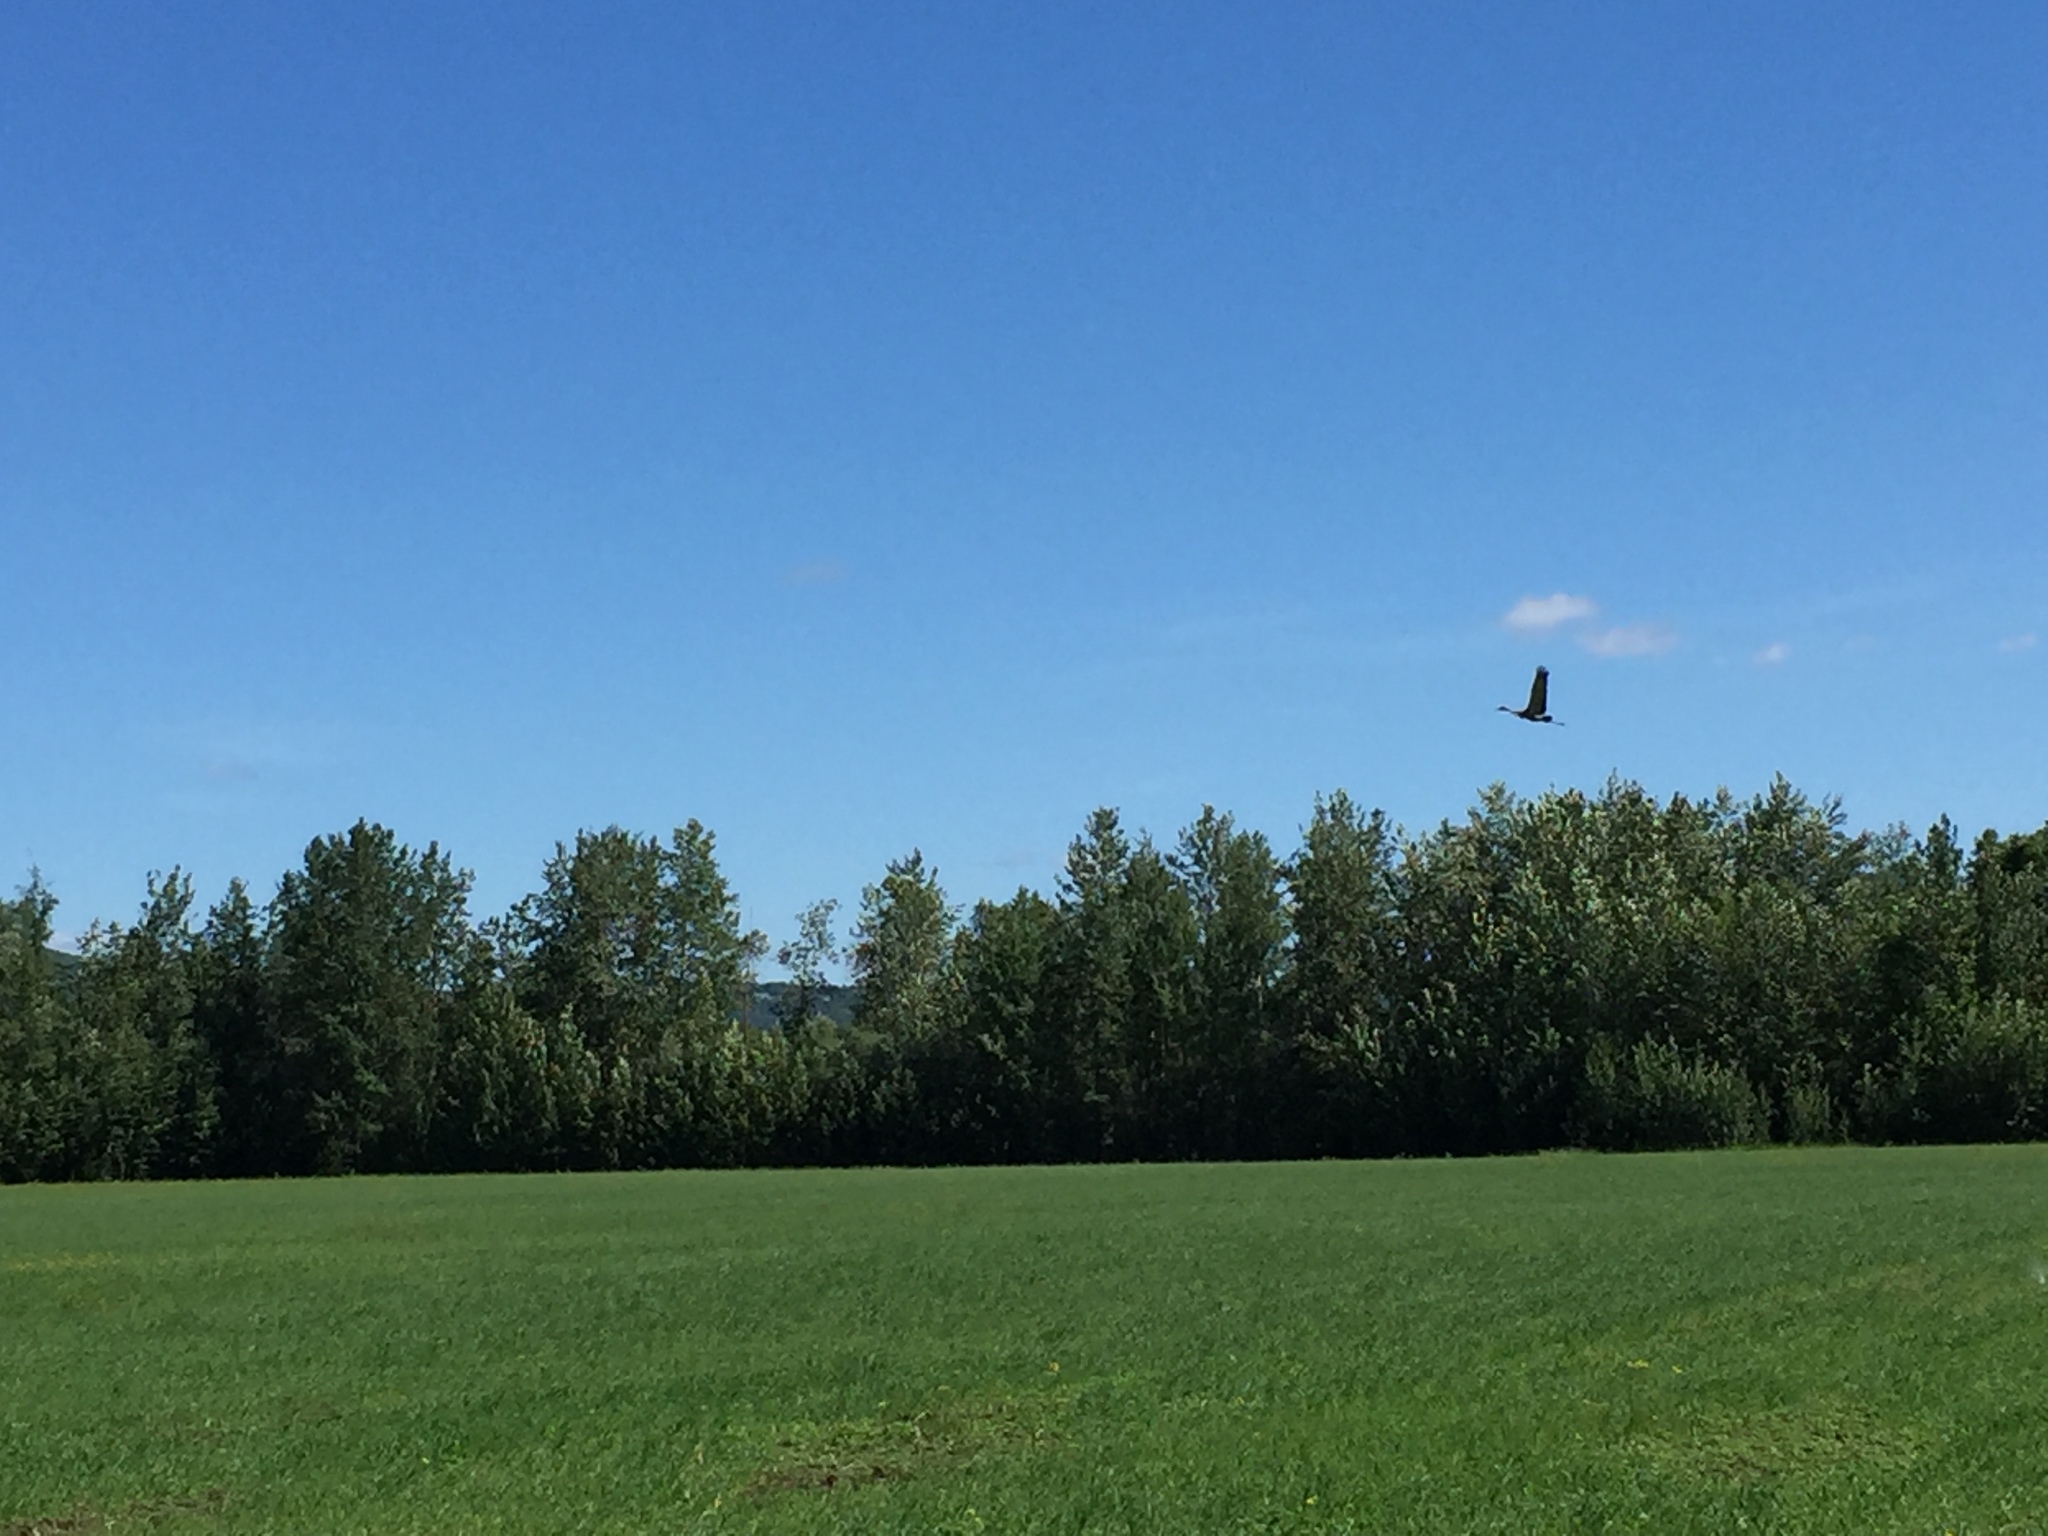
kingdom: Animalia
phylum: Chordata
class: Aves
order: Gruiformes
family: Gruidae
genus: Grus
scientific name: Grus canadensis
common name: Sandhill crane
